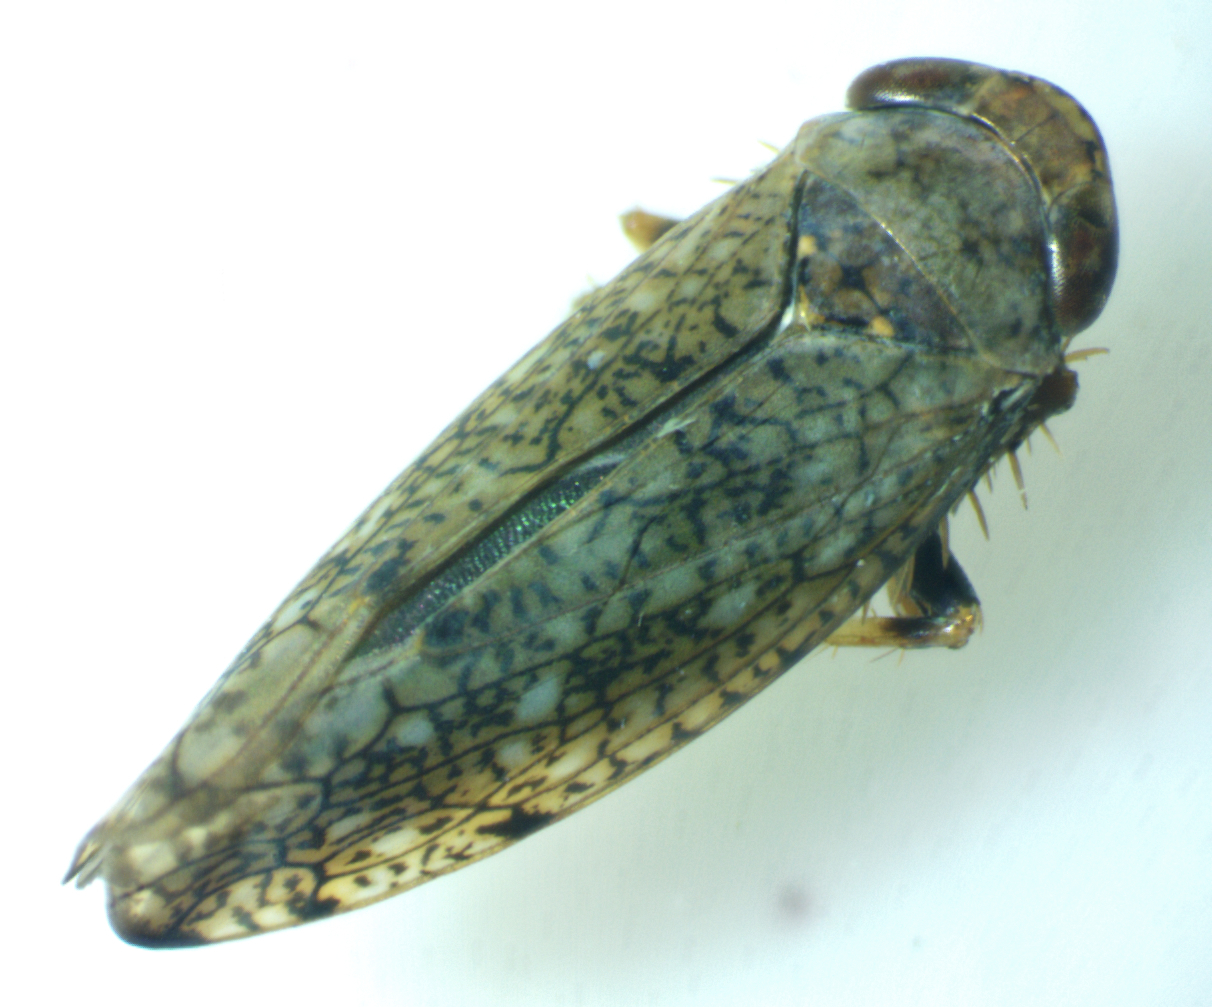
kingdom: Animalia
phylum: Arthropoda
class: Insecta
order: Hemiptera
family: Cicadellidae
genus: Orientus
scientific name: Orientus ishidae
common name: Japanese leafhopper
